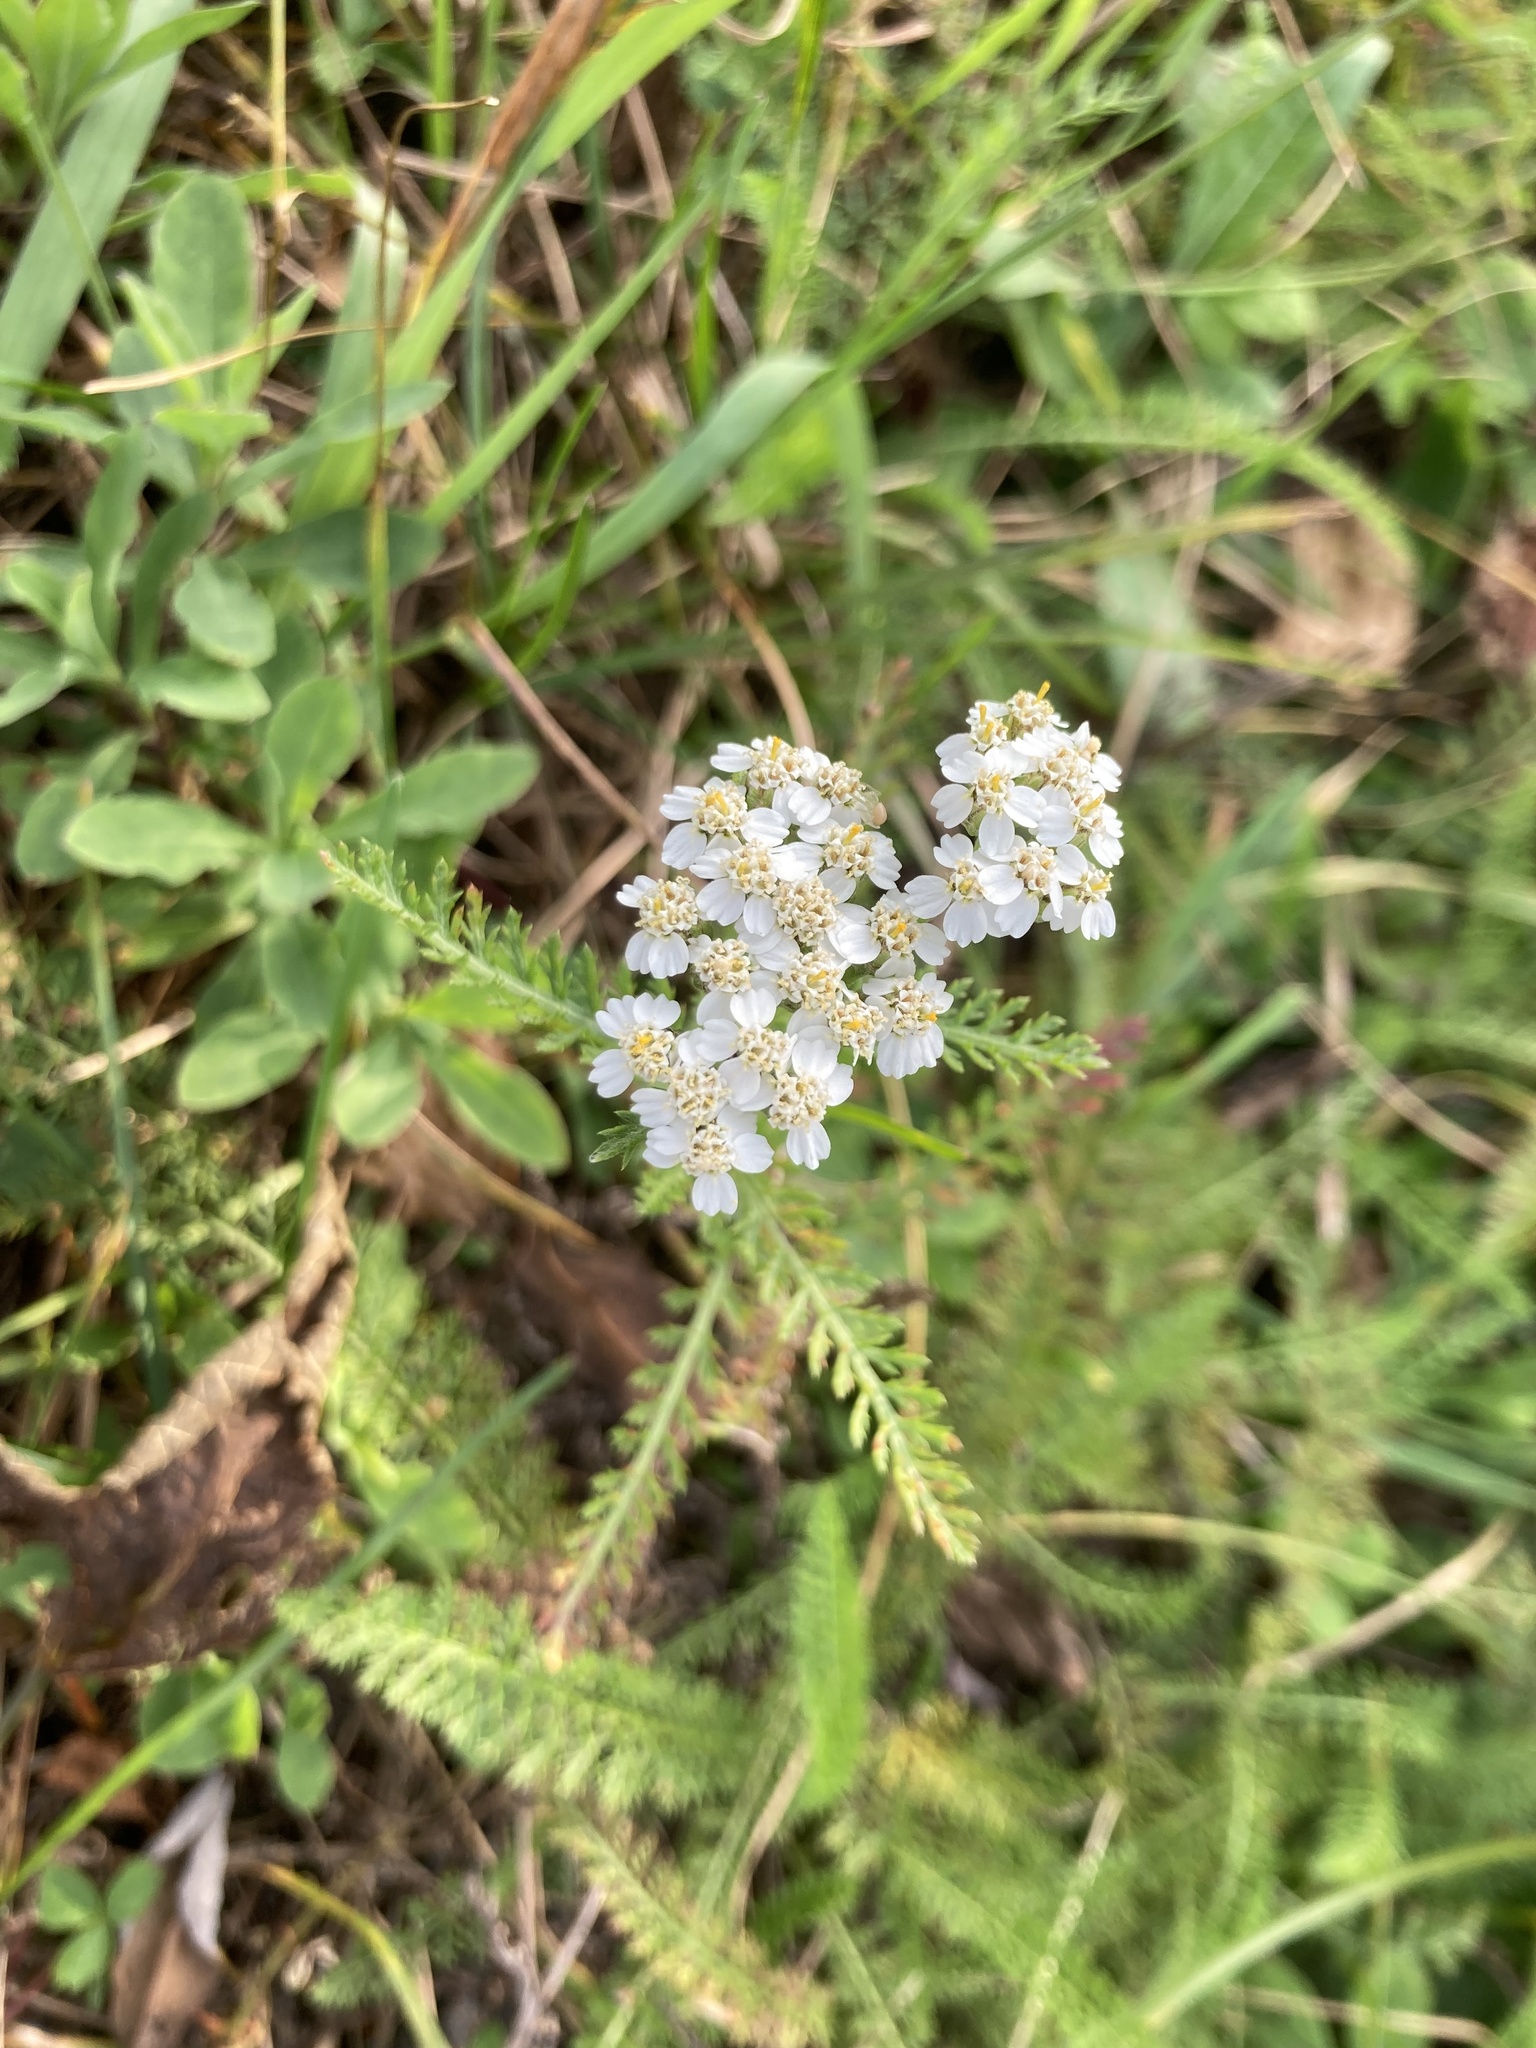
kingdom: Plantae
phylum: Tracheophyta
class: Magnoliopsida
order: Asterales
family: Asteraceae
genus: Achillea
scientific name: Achillea millefolium
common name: Yarrow
